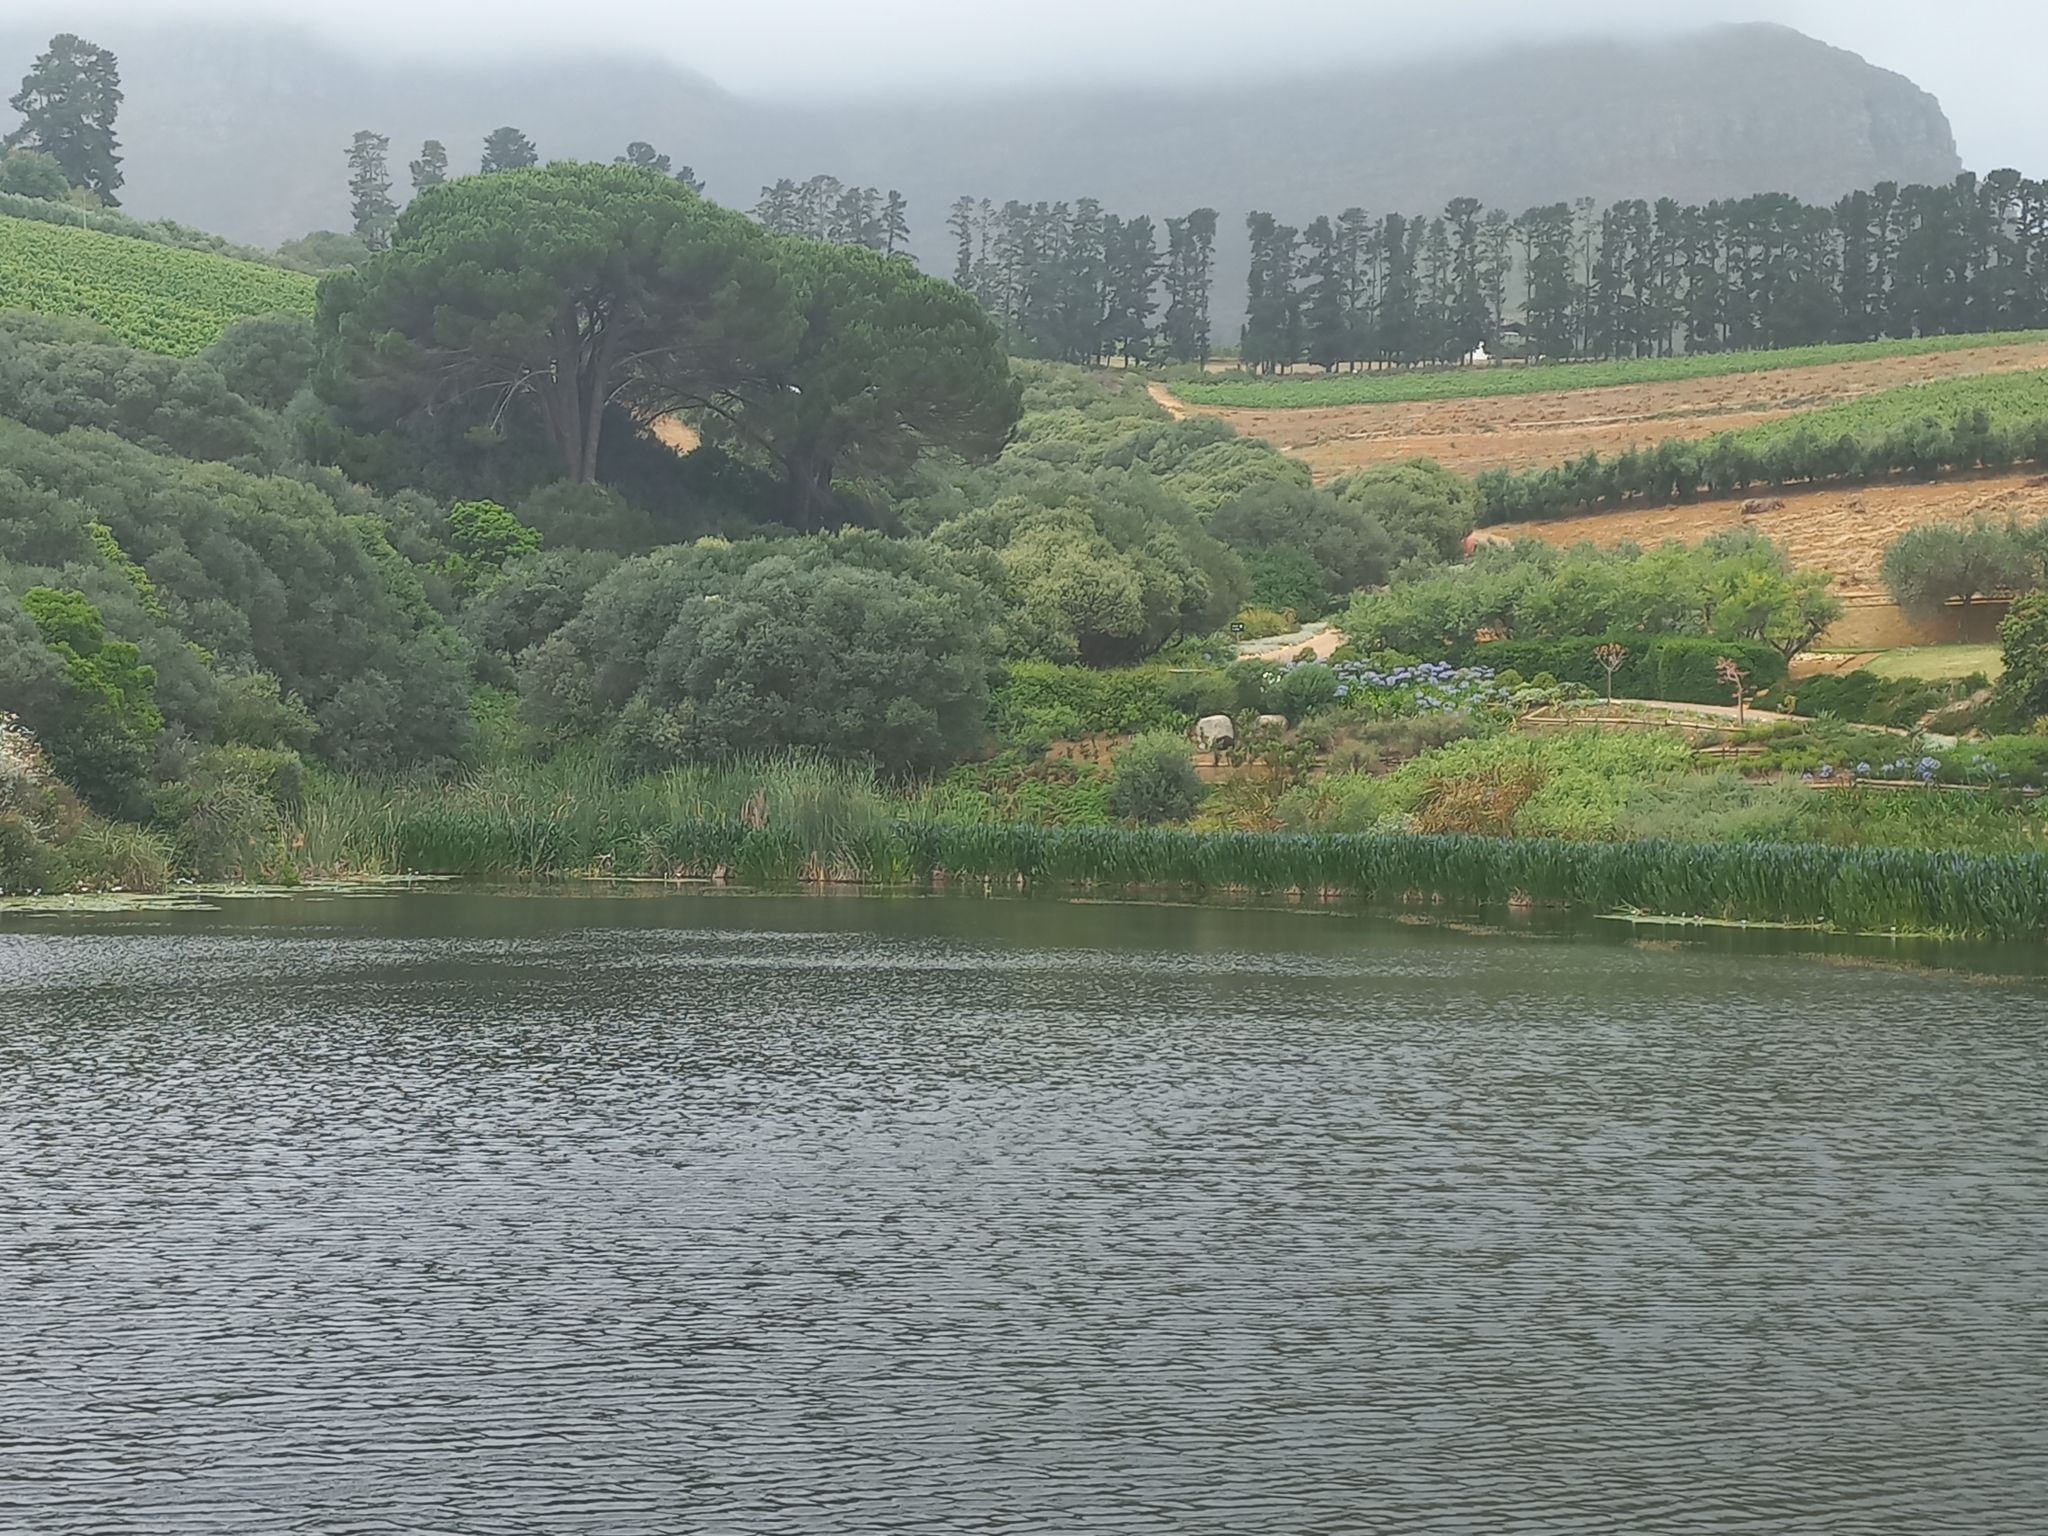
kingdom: Plantae
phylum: Tracheophyta
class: Liliopsida
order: Commelinales
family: Pontederiaceae
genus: Pontederia
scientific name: Pontederia cordata
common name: Pickerelweed
